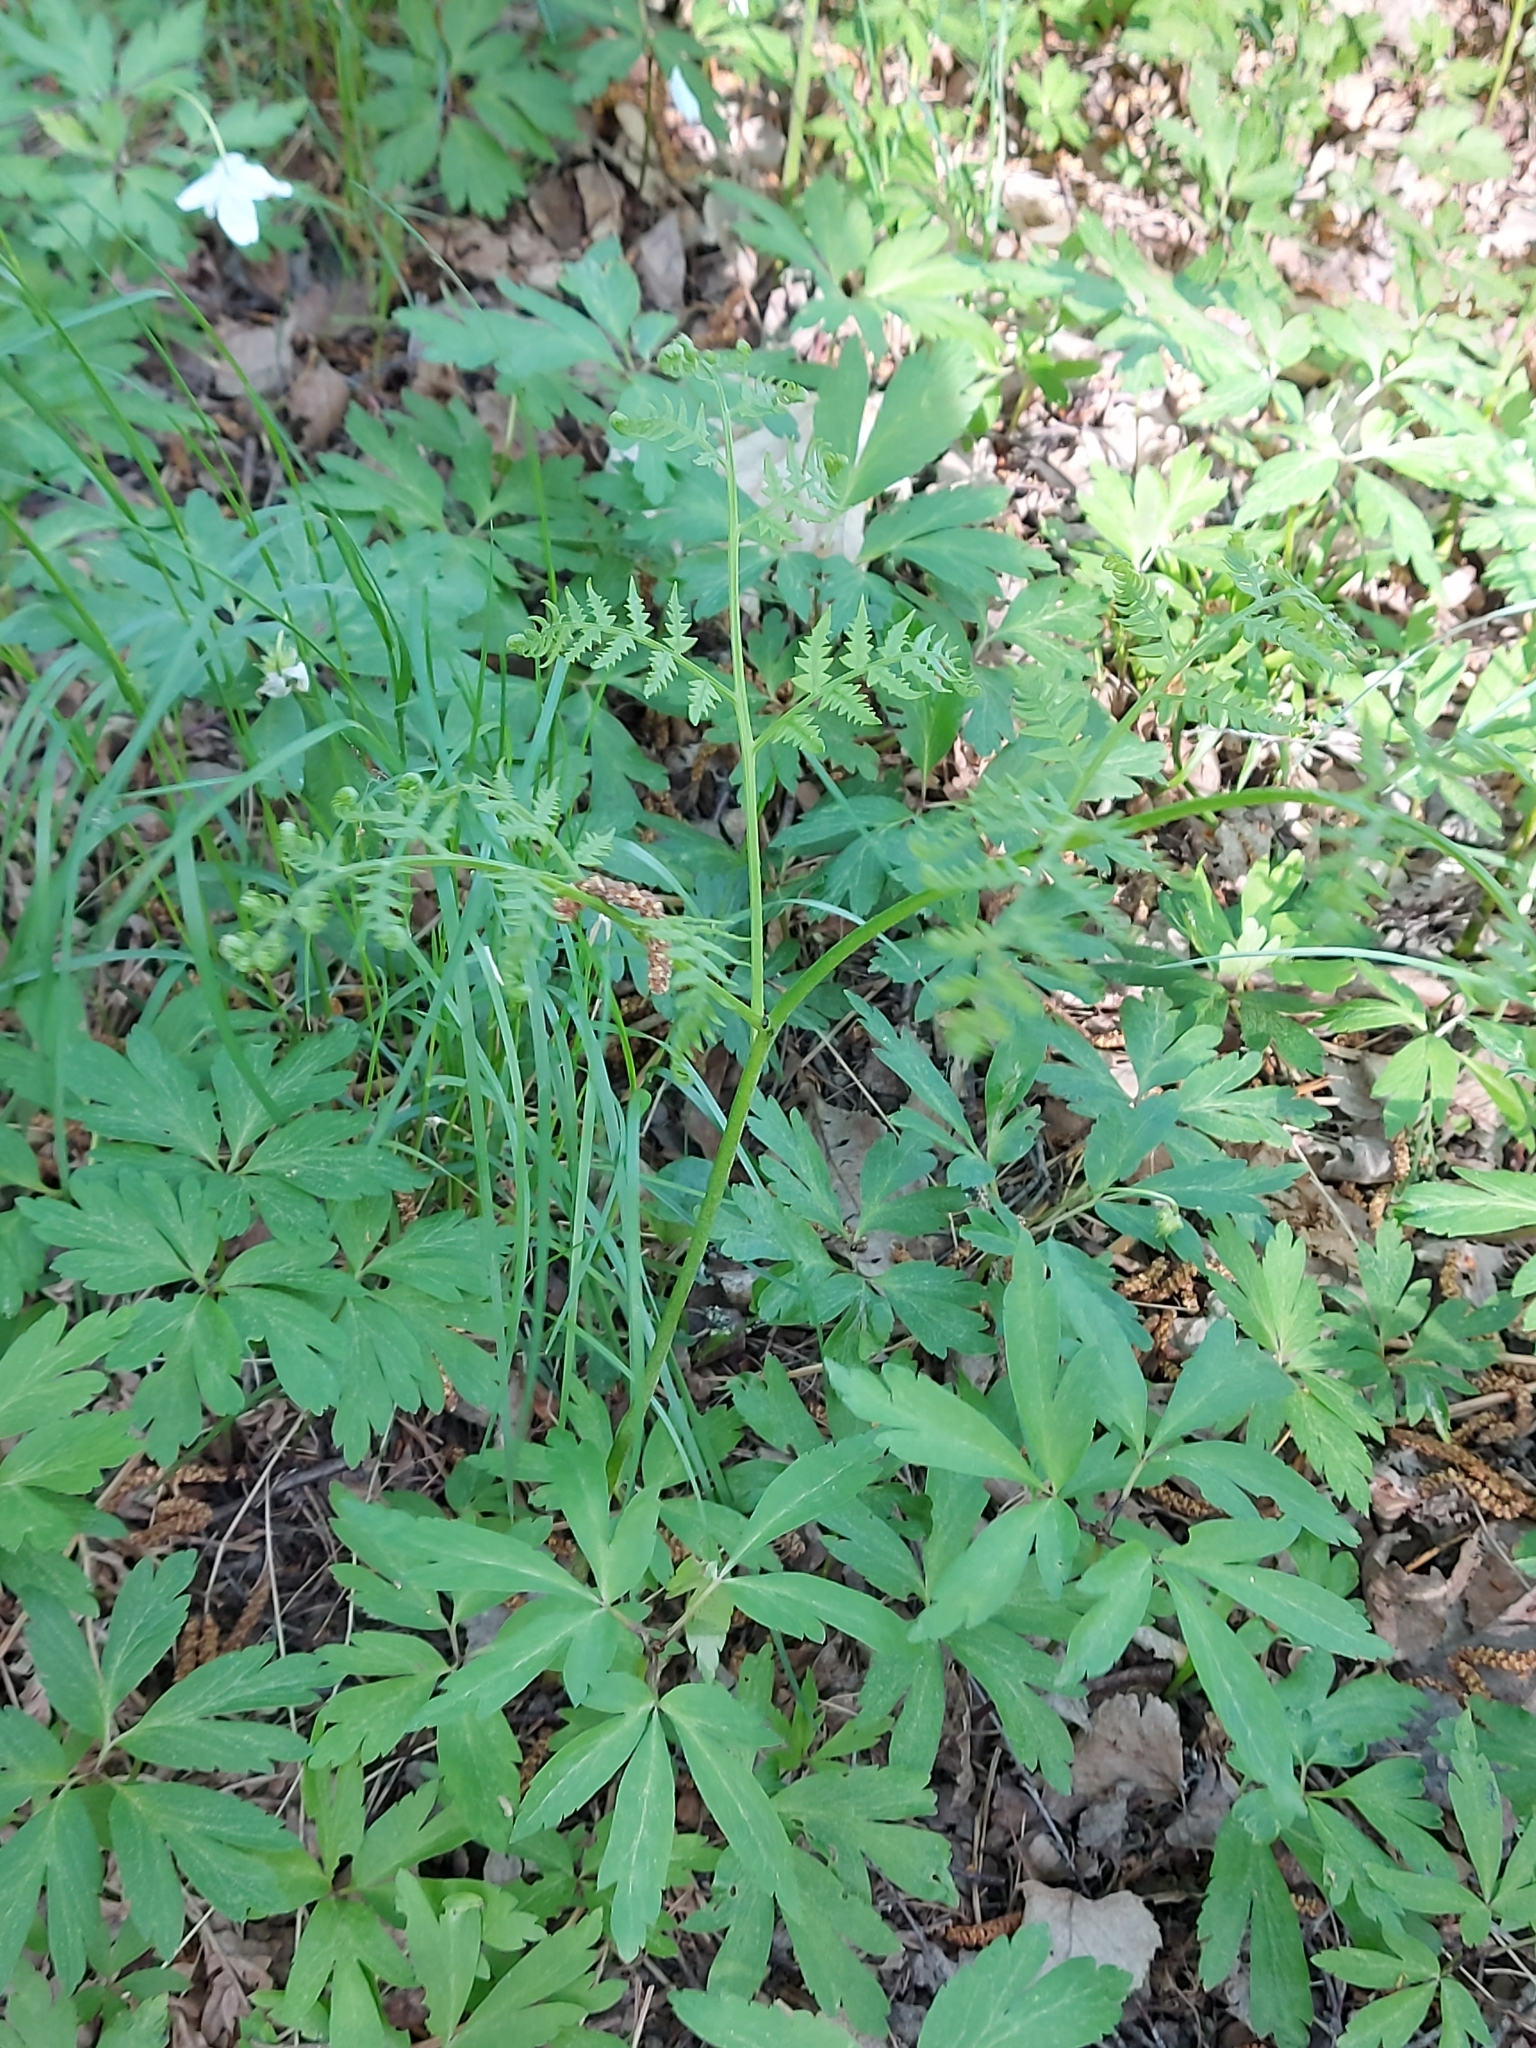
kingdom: Plantae
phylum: Tracheophyta
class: Polypodiopsida
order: Polypodiales
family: Dennstaedtiaceae
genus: Pteridium
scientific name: Pteridium aquilinum
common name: Bracken
